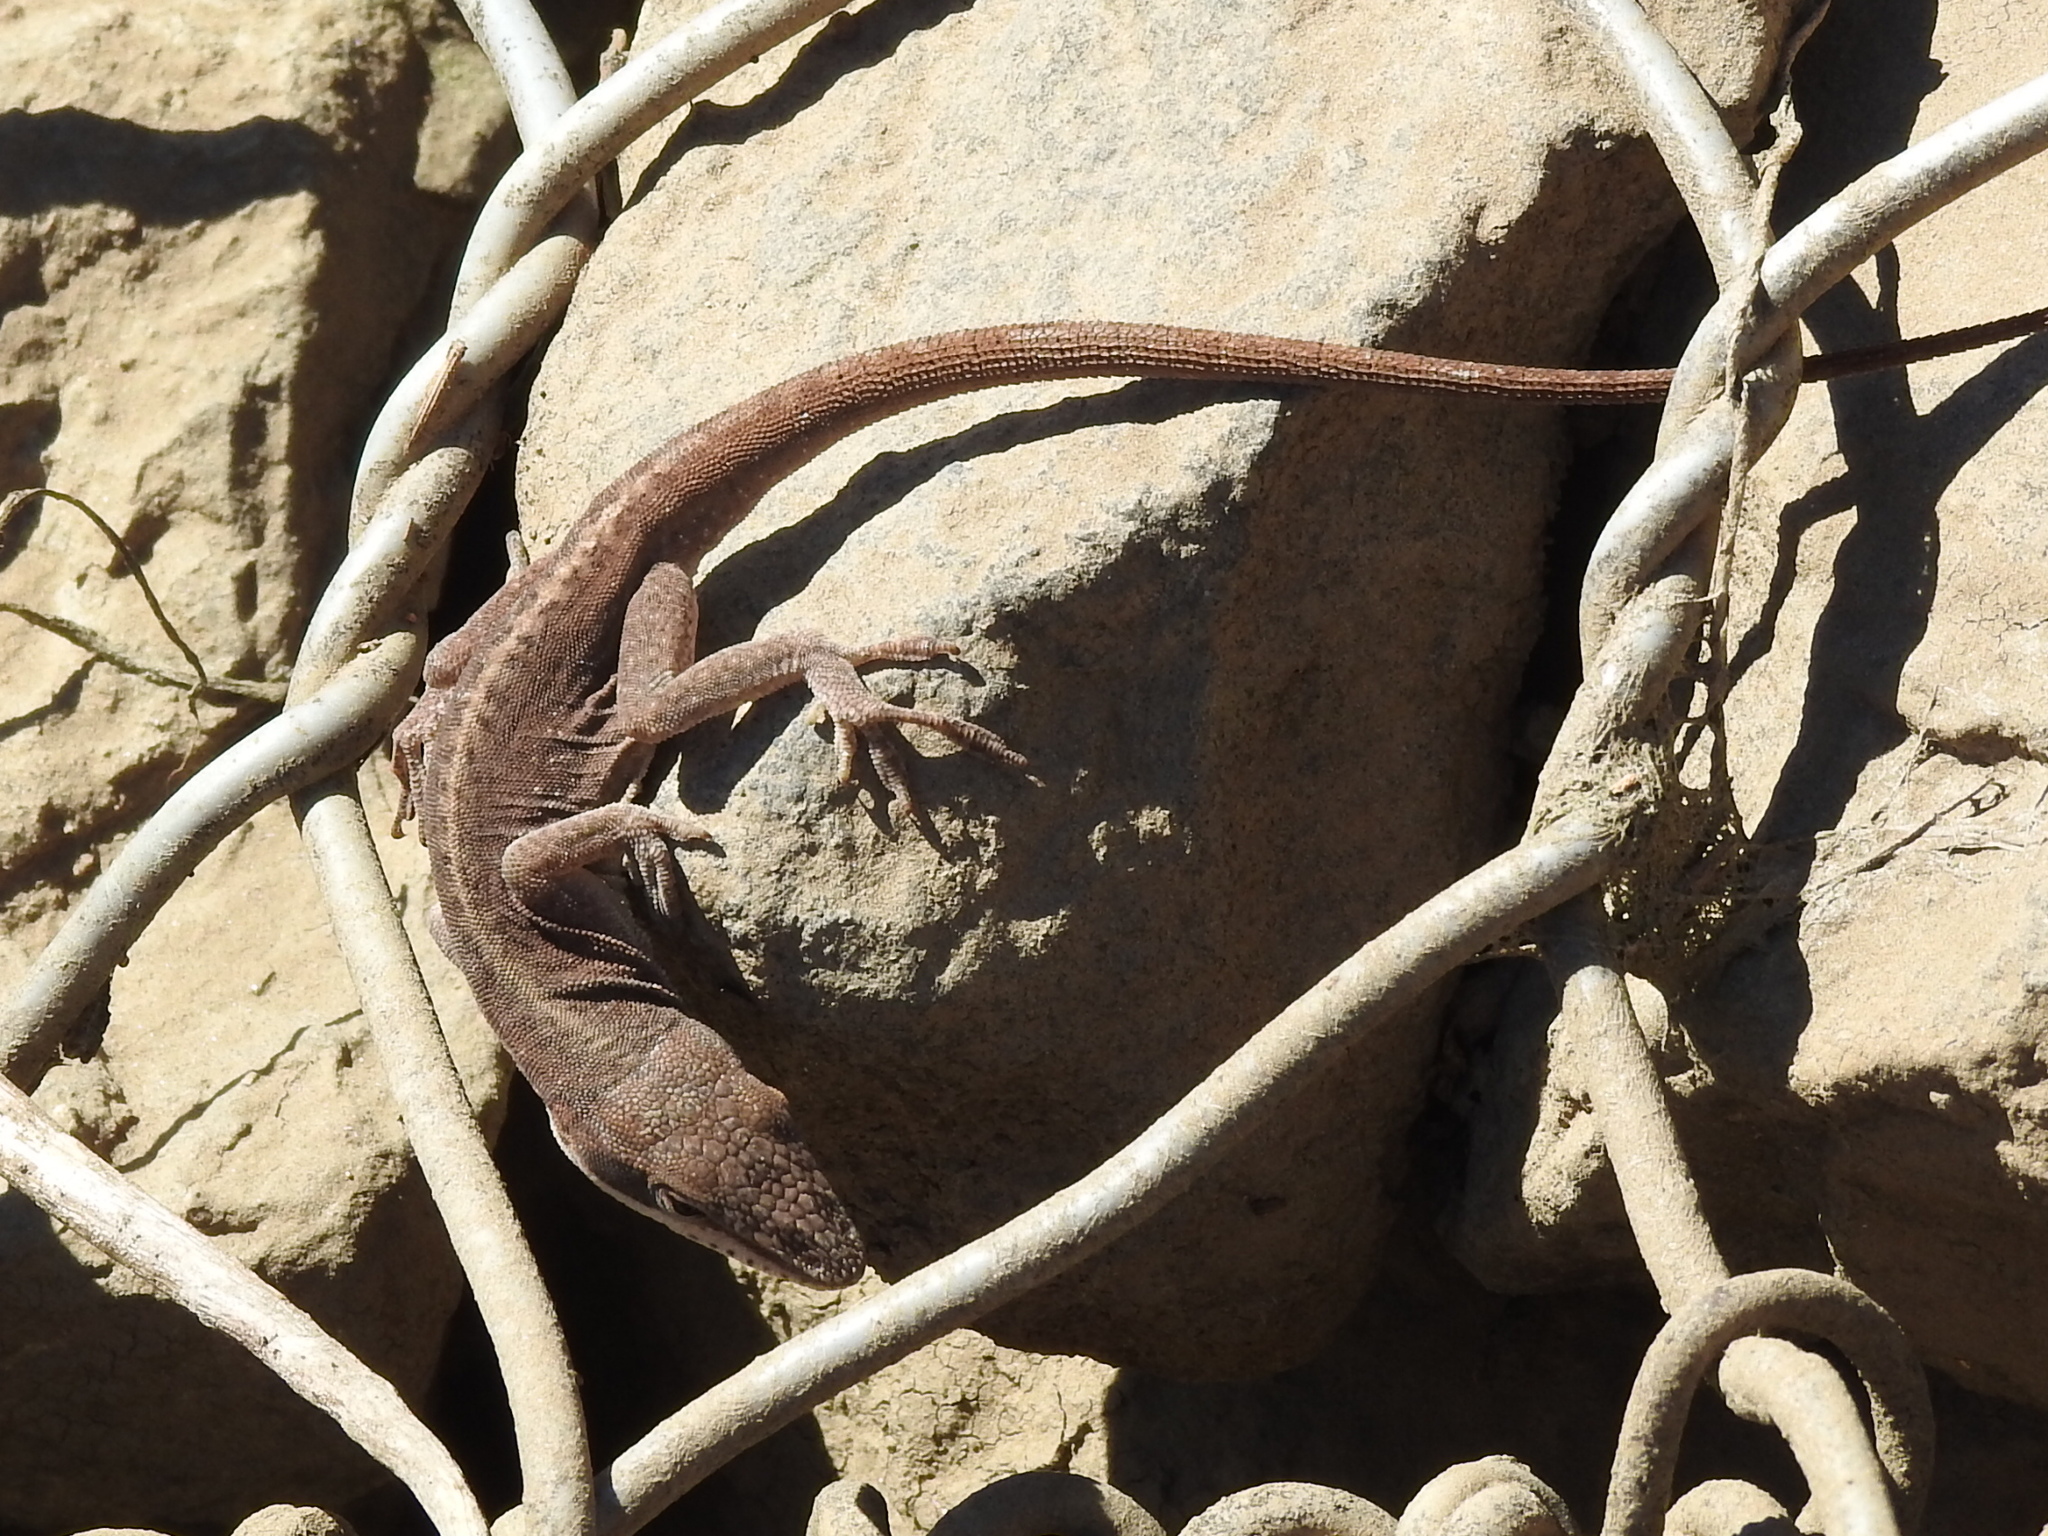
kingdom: Animalia
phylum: Chordata
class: Squamata
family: Dactyloidae
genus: Anolis
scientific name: Anolis carolinensis
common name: Green anole
